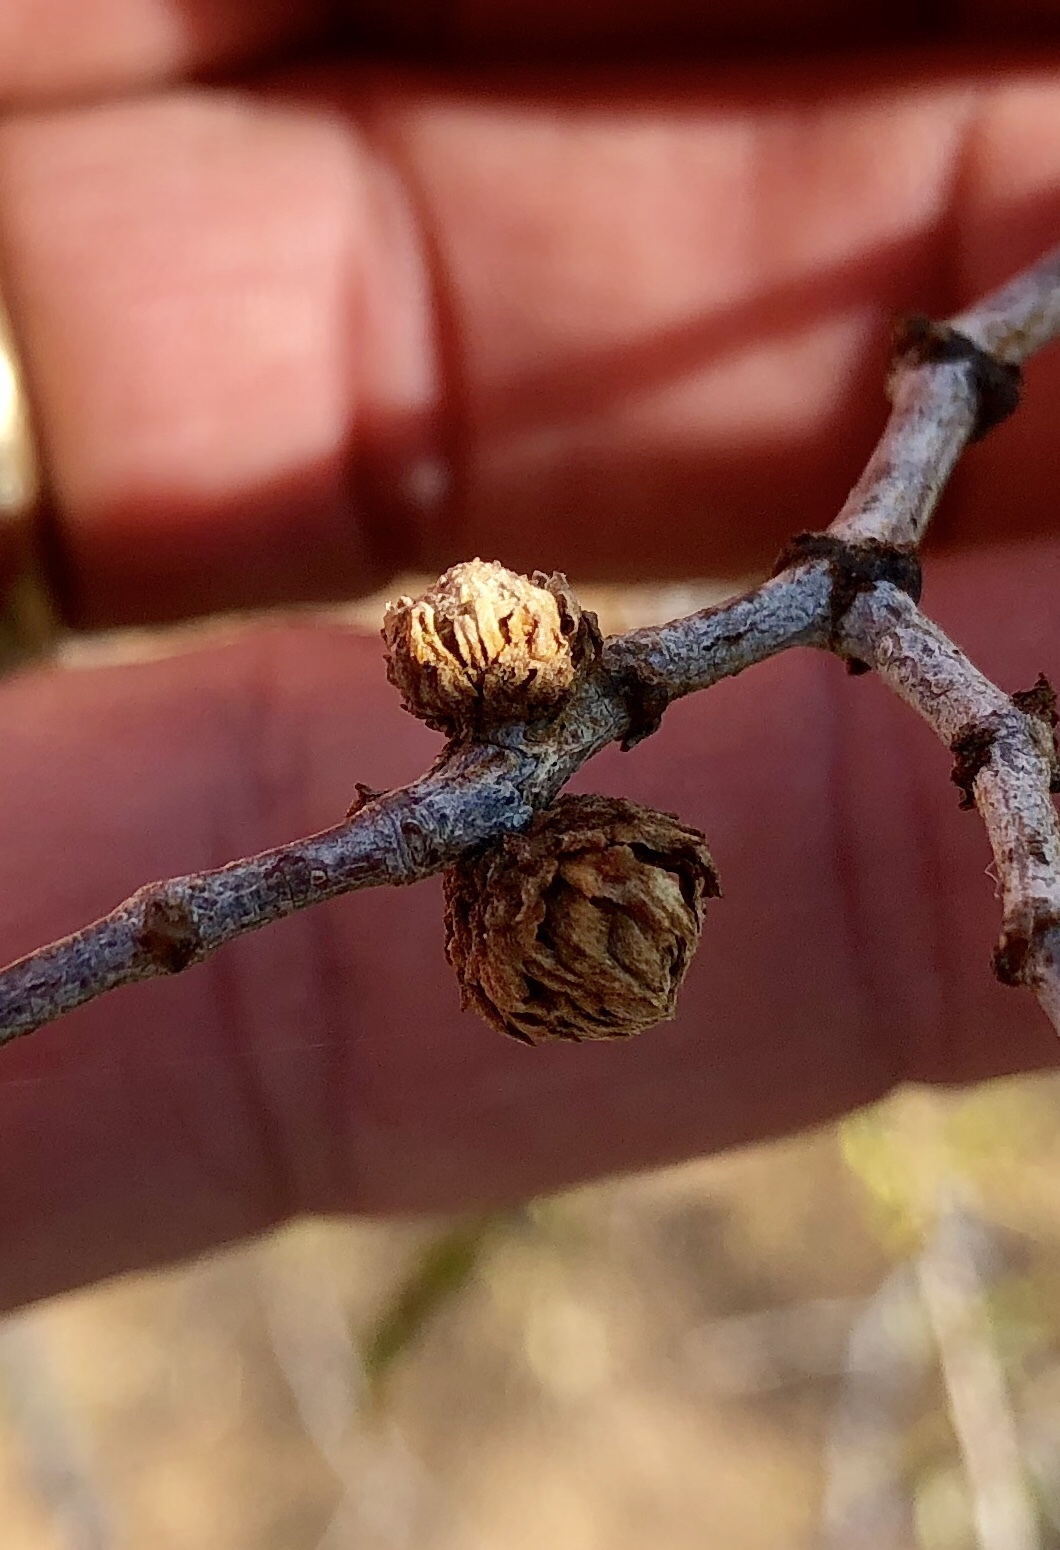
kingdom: Animalia
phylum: Arthropoda
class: Insecta
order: Diptera
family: Cecidomyiidae
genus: Asphondylia
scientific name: Asphondylia foliosa
